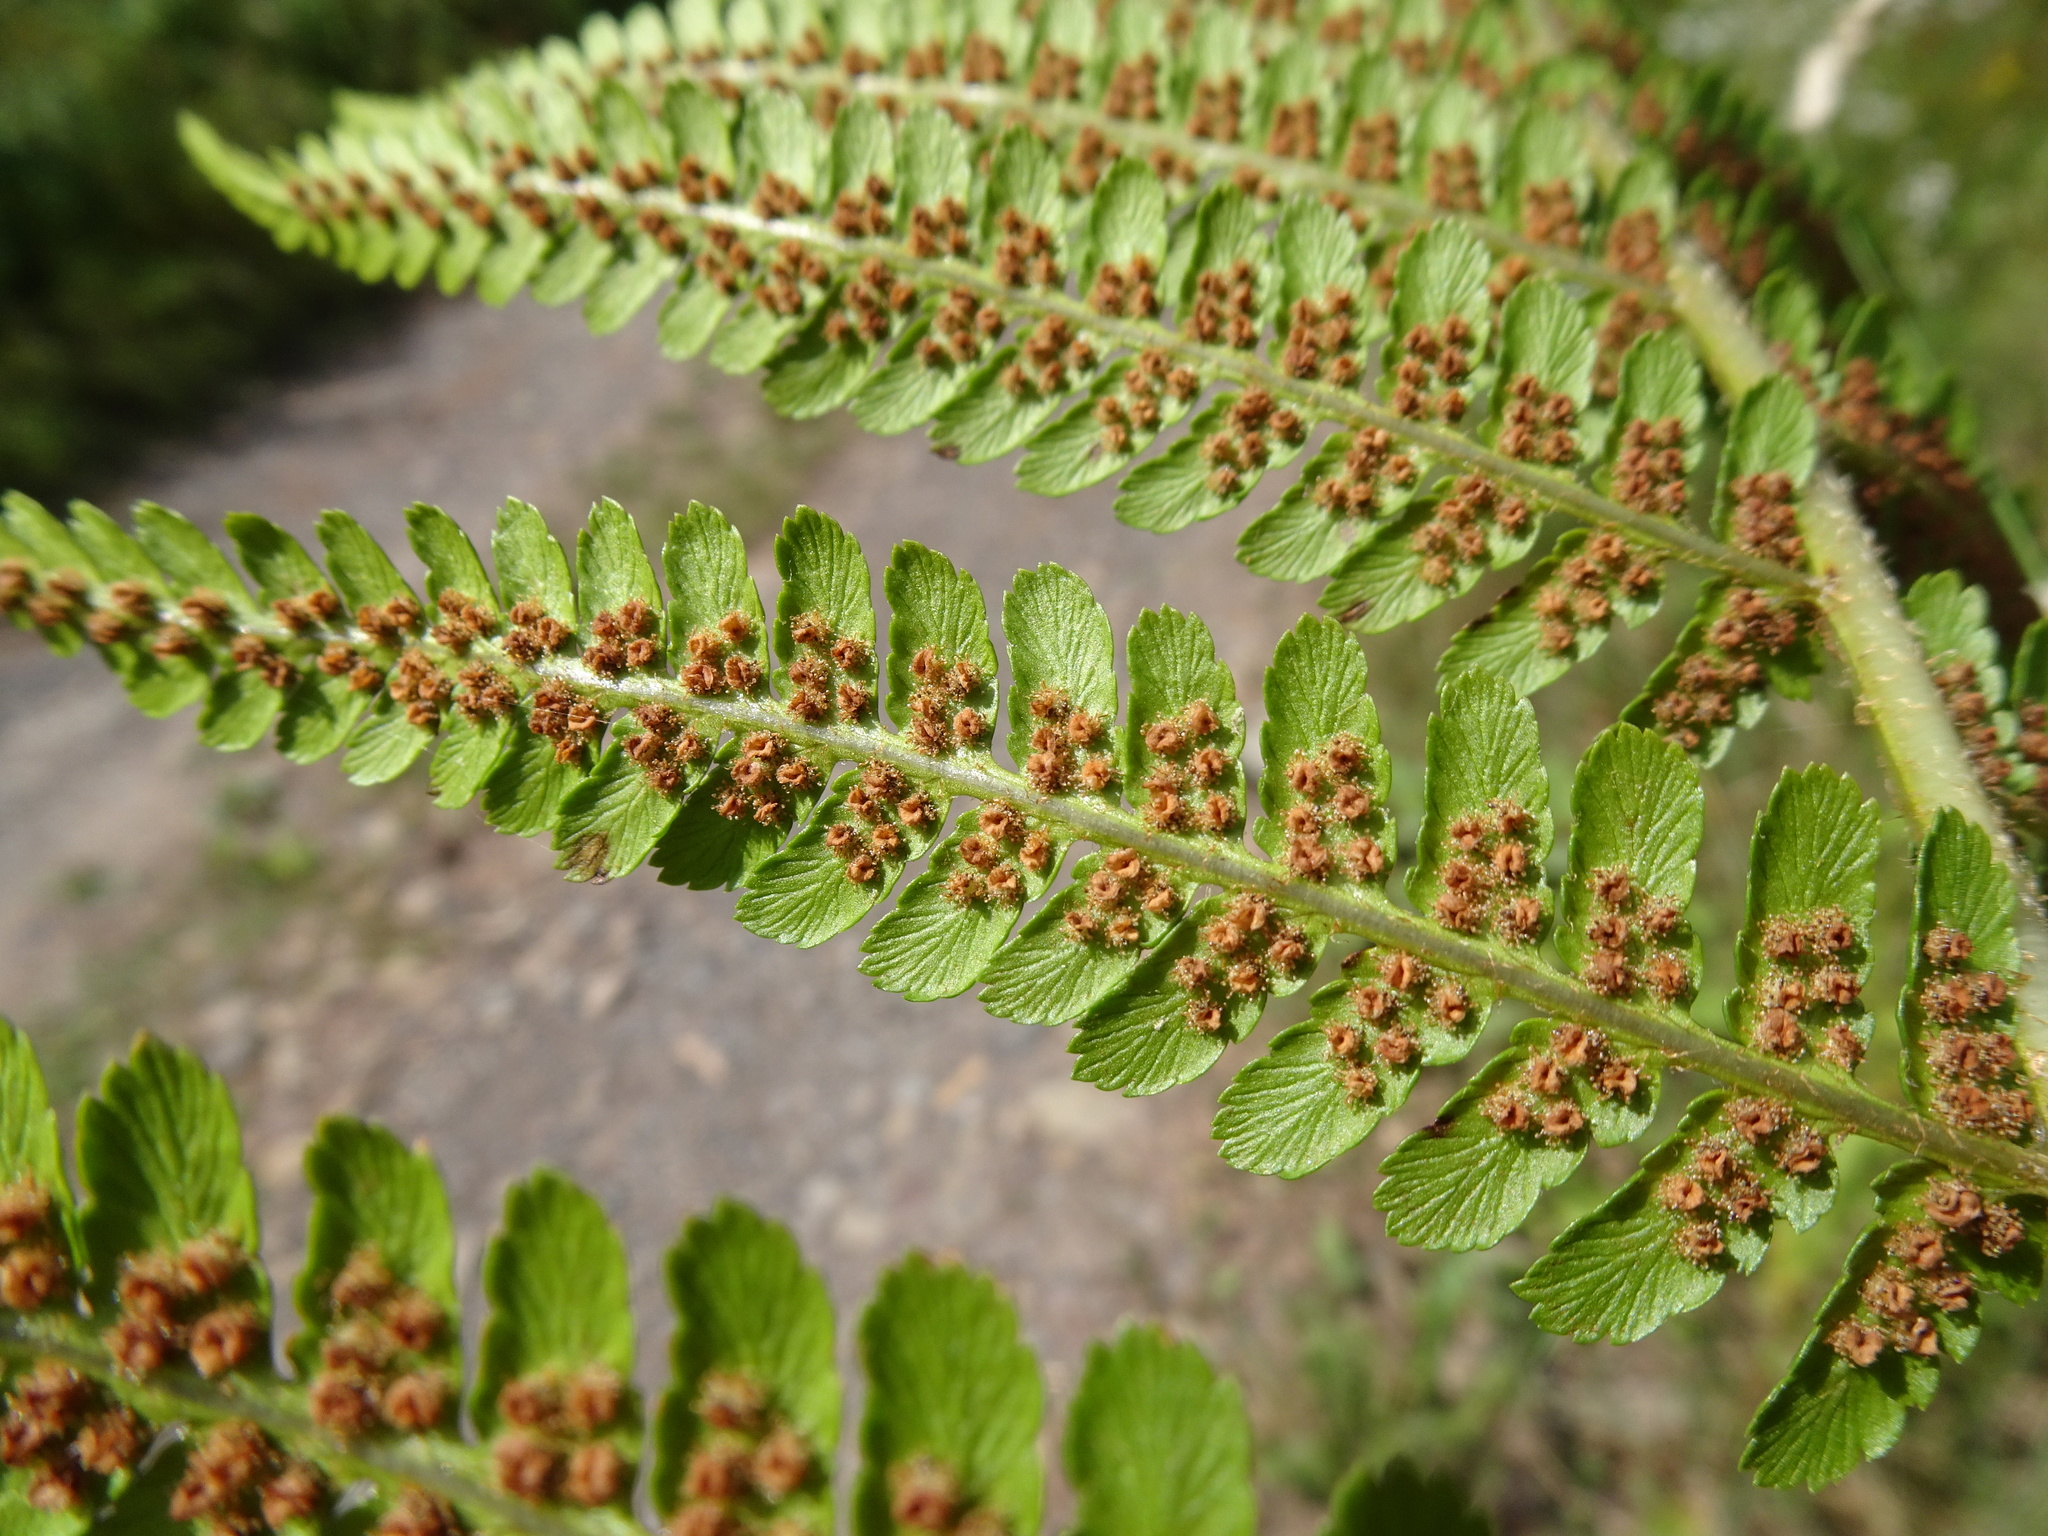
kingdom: Plantae
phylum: Tracheophyta
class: Polypodiopsida
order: Polypodiales
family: Dryopteridaceae
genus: Dryopteris
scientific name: Dryopteris filix-mas
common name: Male fern
